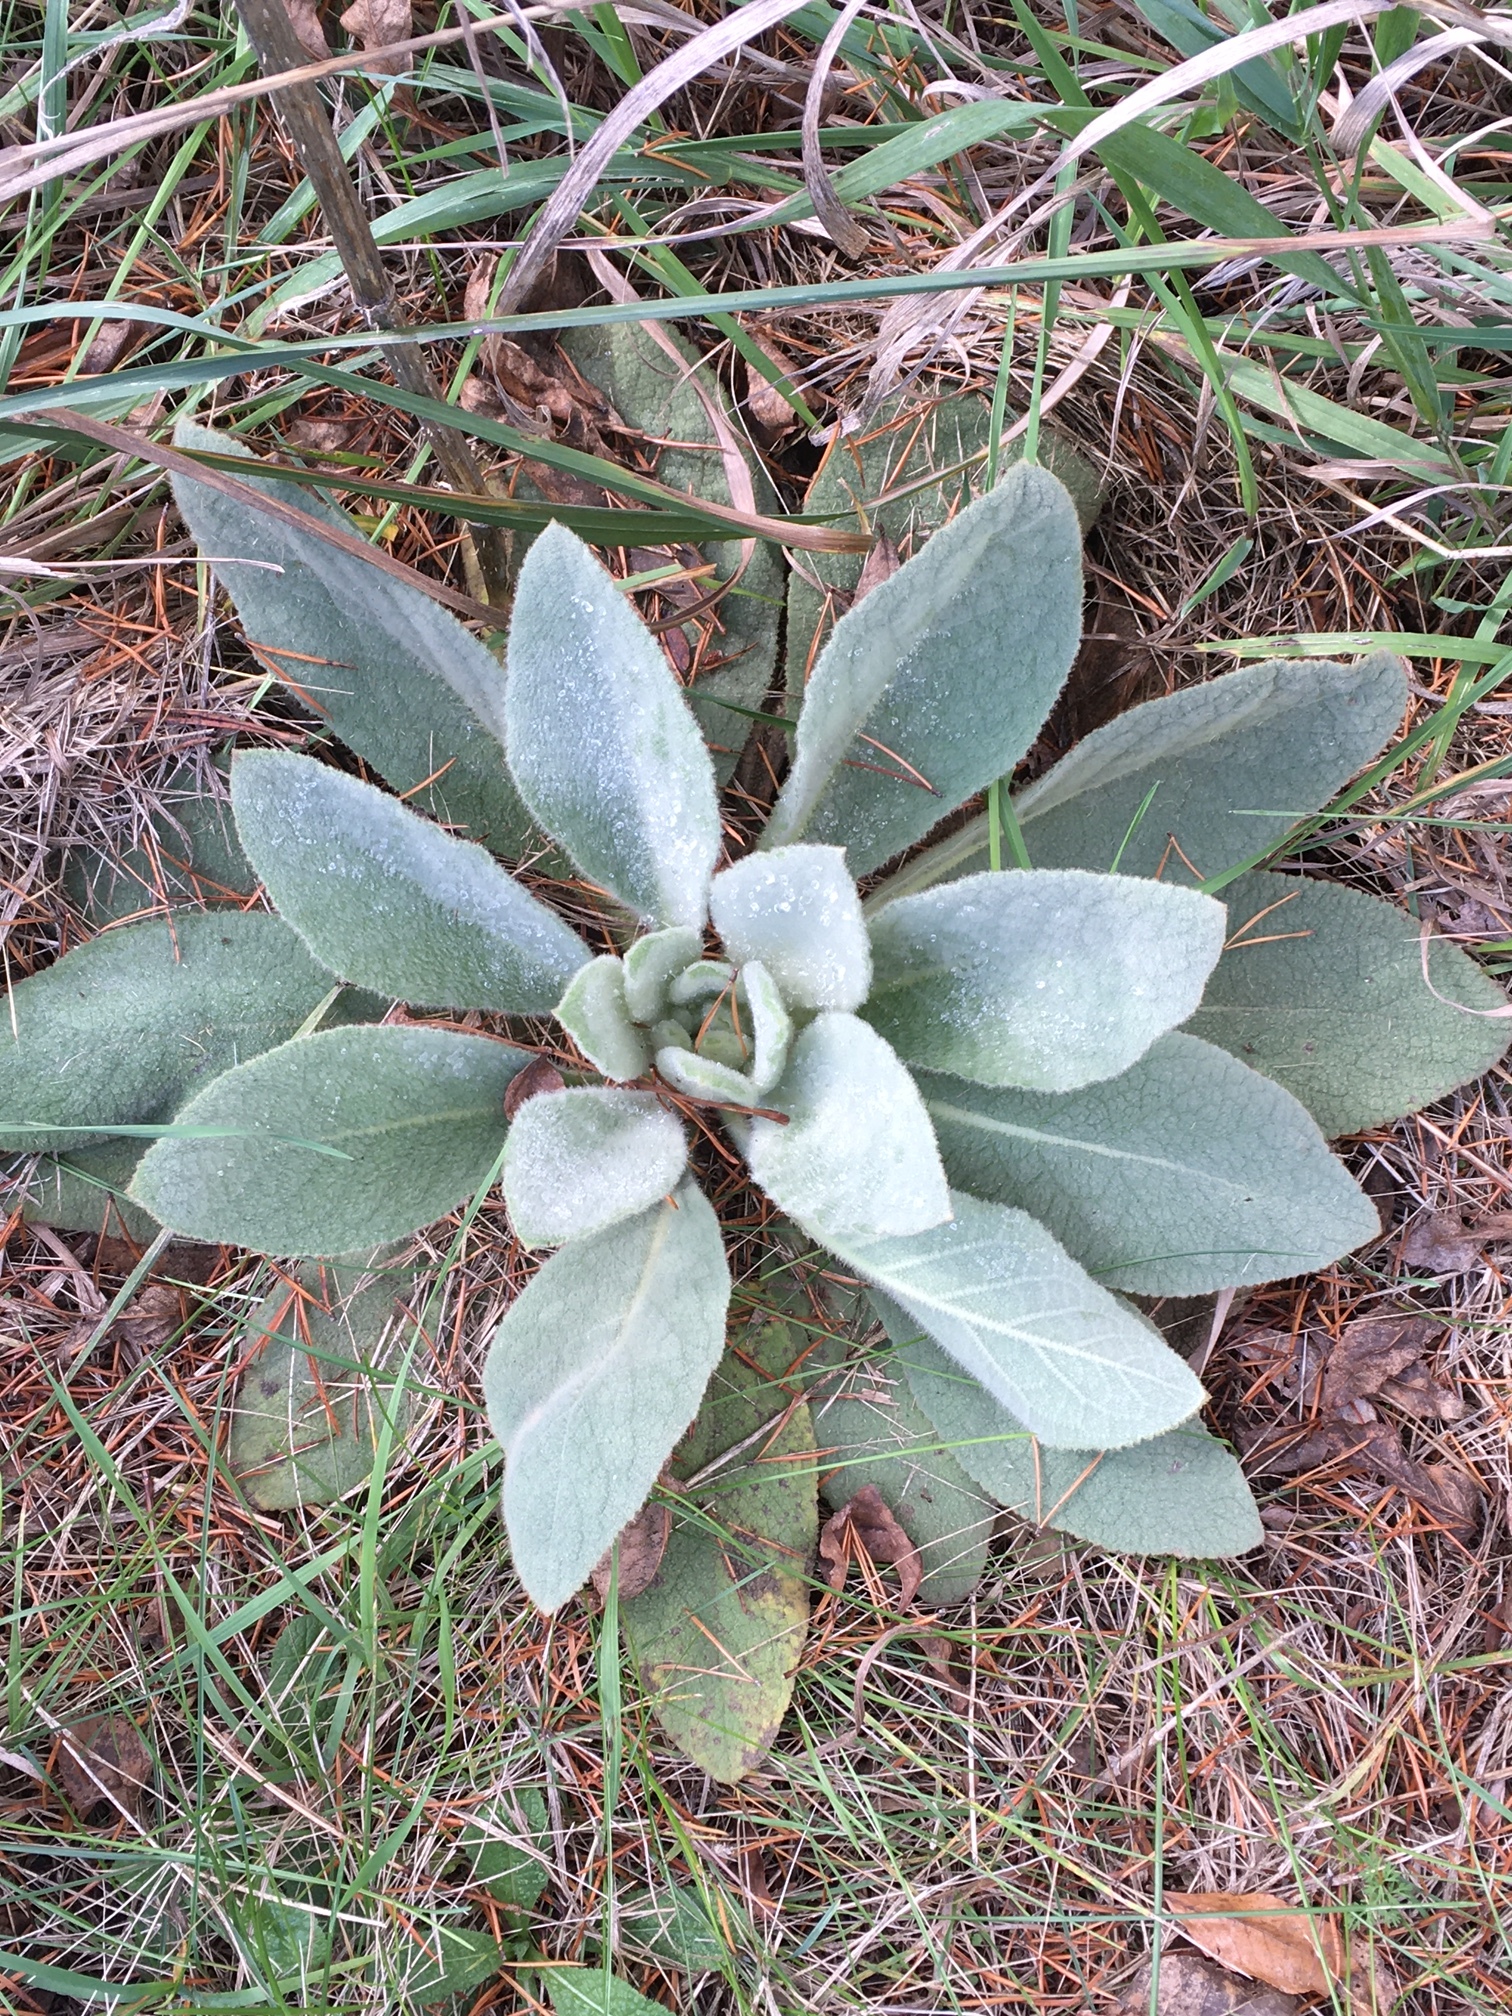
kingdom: Plantae
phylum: Tracheophyta
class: Magnoliopsida
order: Lamiales
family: Scrophulariaceae
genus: Verbascum
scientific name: Verbascum thapsus
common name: Common mullein
